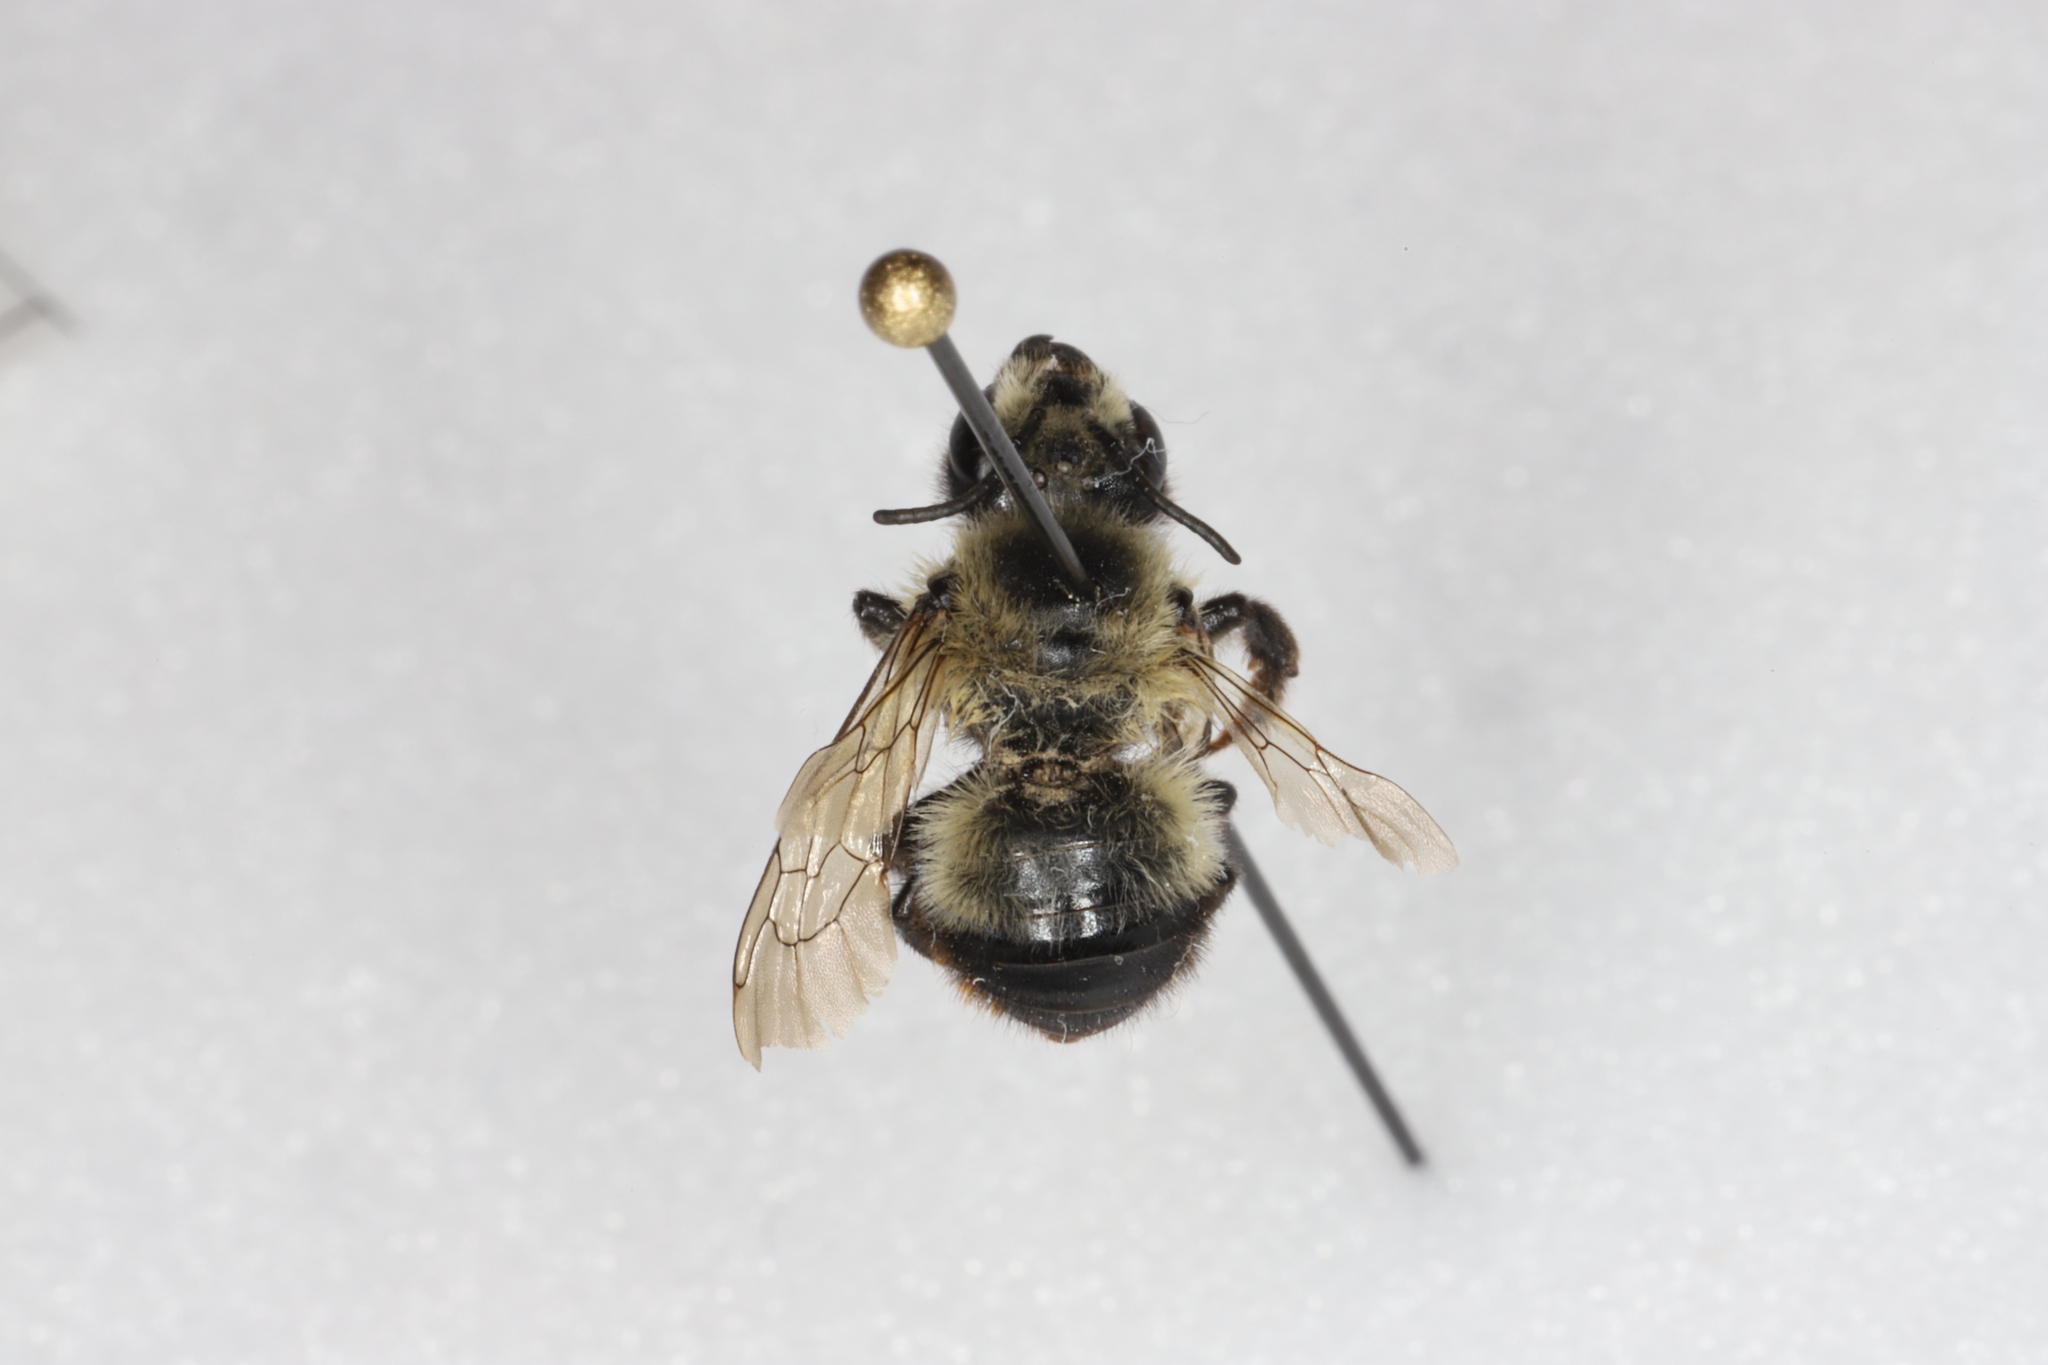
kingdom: Animalia
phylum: Arthropoda
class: Insecta
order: Hymenoptera
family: Megachilidae
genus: Megachile
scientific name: Megachile melanophaea
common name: Black-and-gray leafcutter bee
